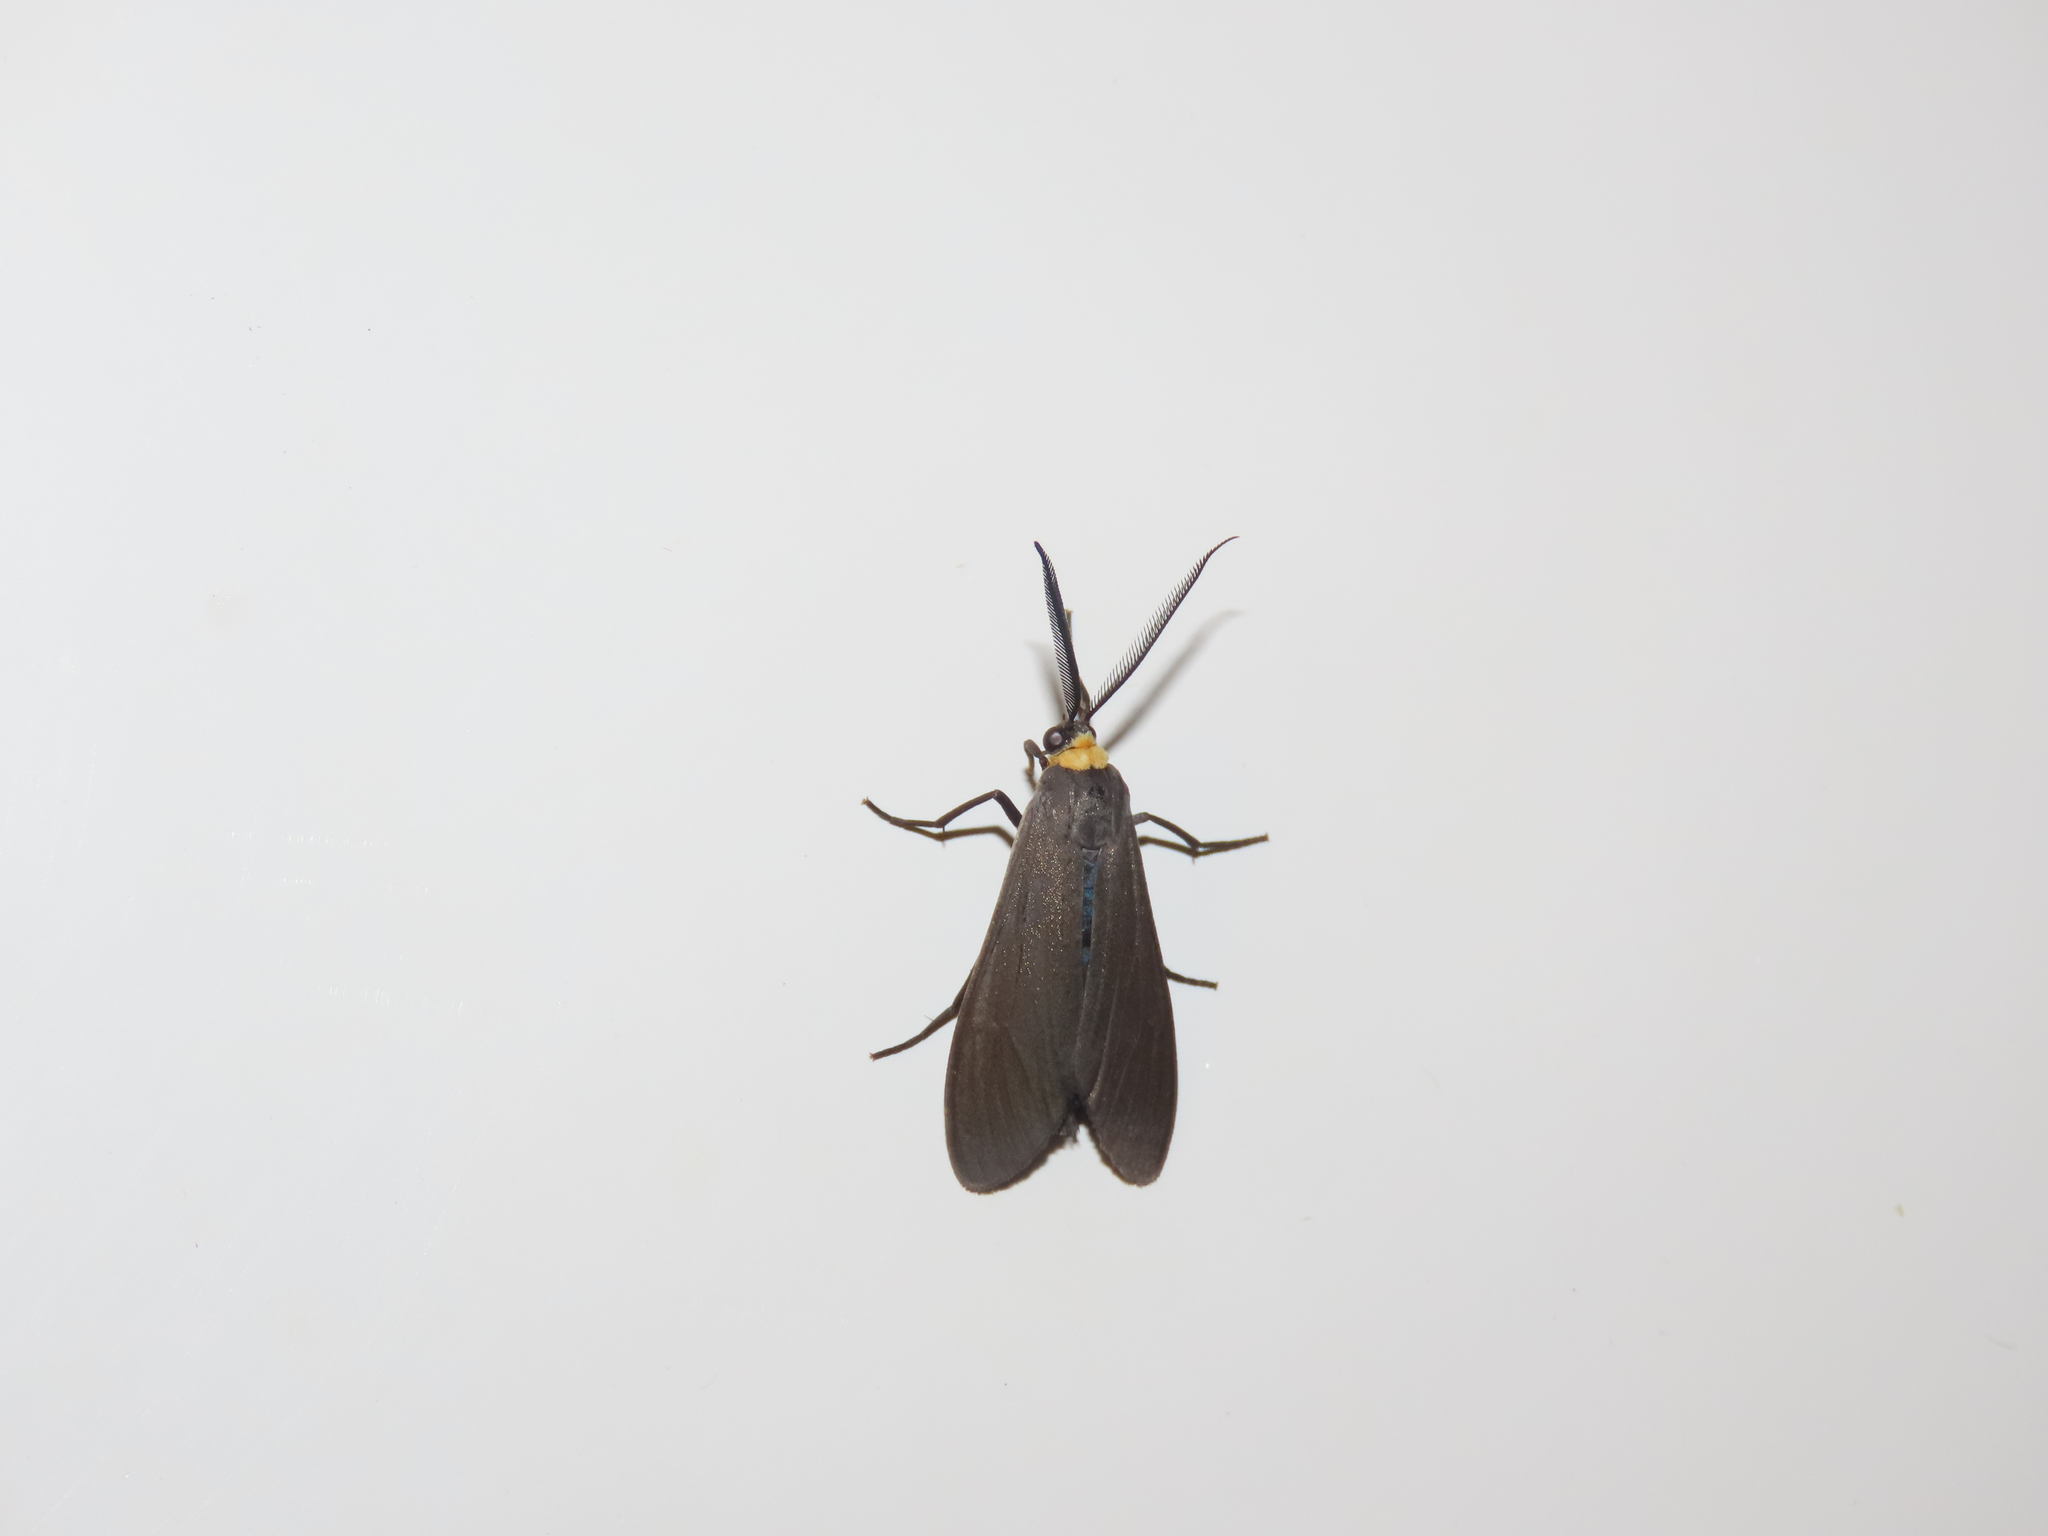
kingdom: Animalia
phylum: Arthropoda
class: Insecta
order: Lepidoptera
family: Erebidae
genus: Cisseps
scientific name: Cisseps fulvicollis
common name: Yellow-collared scape moth
